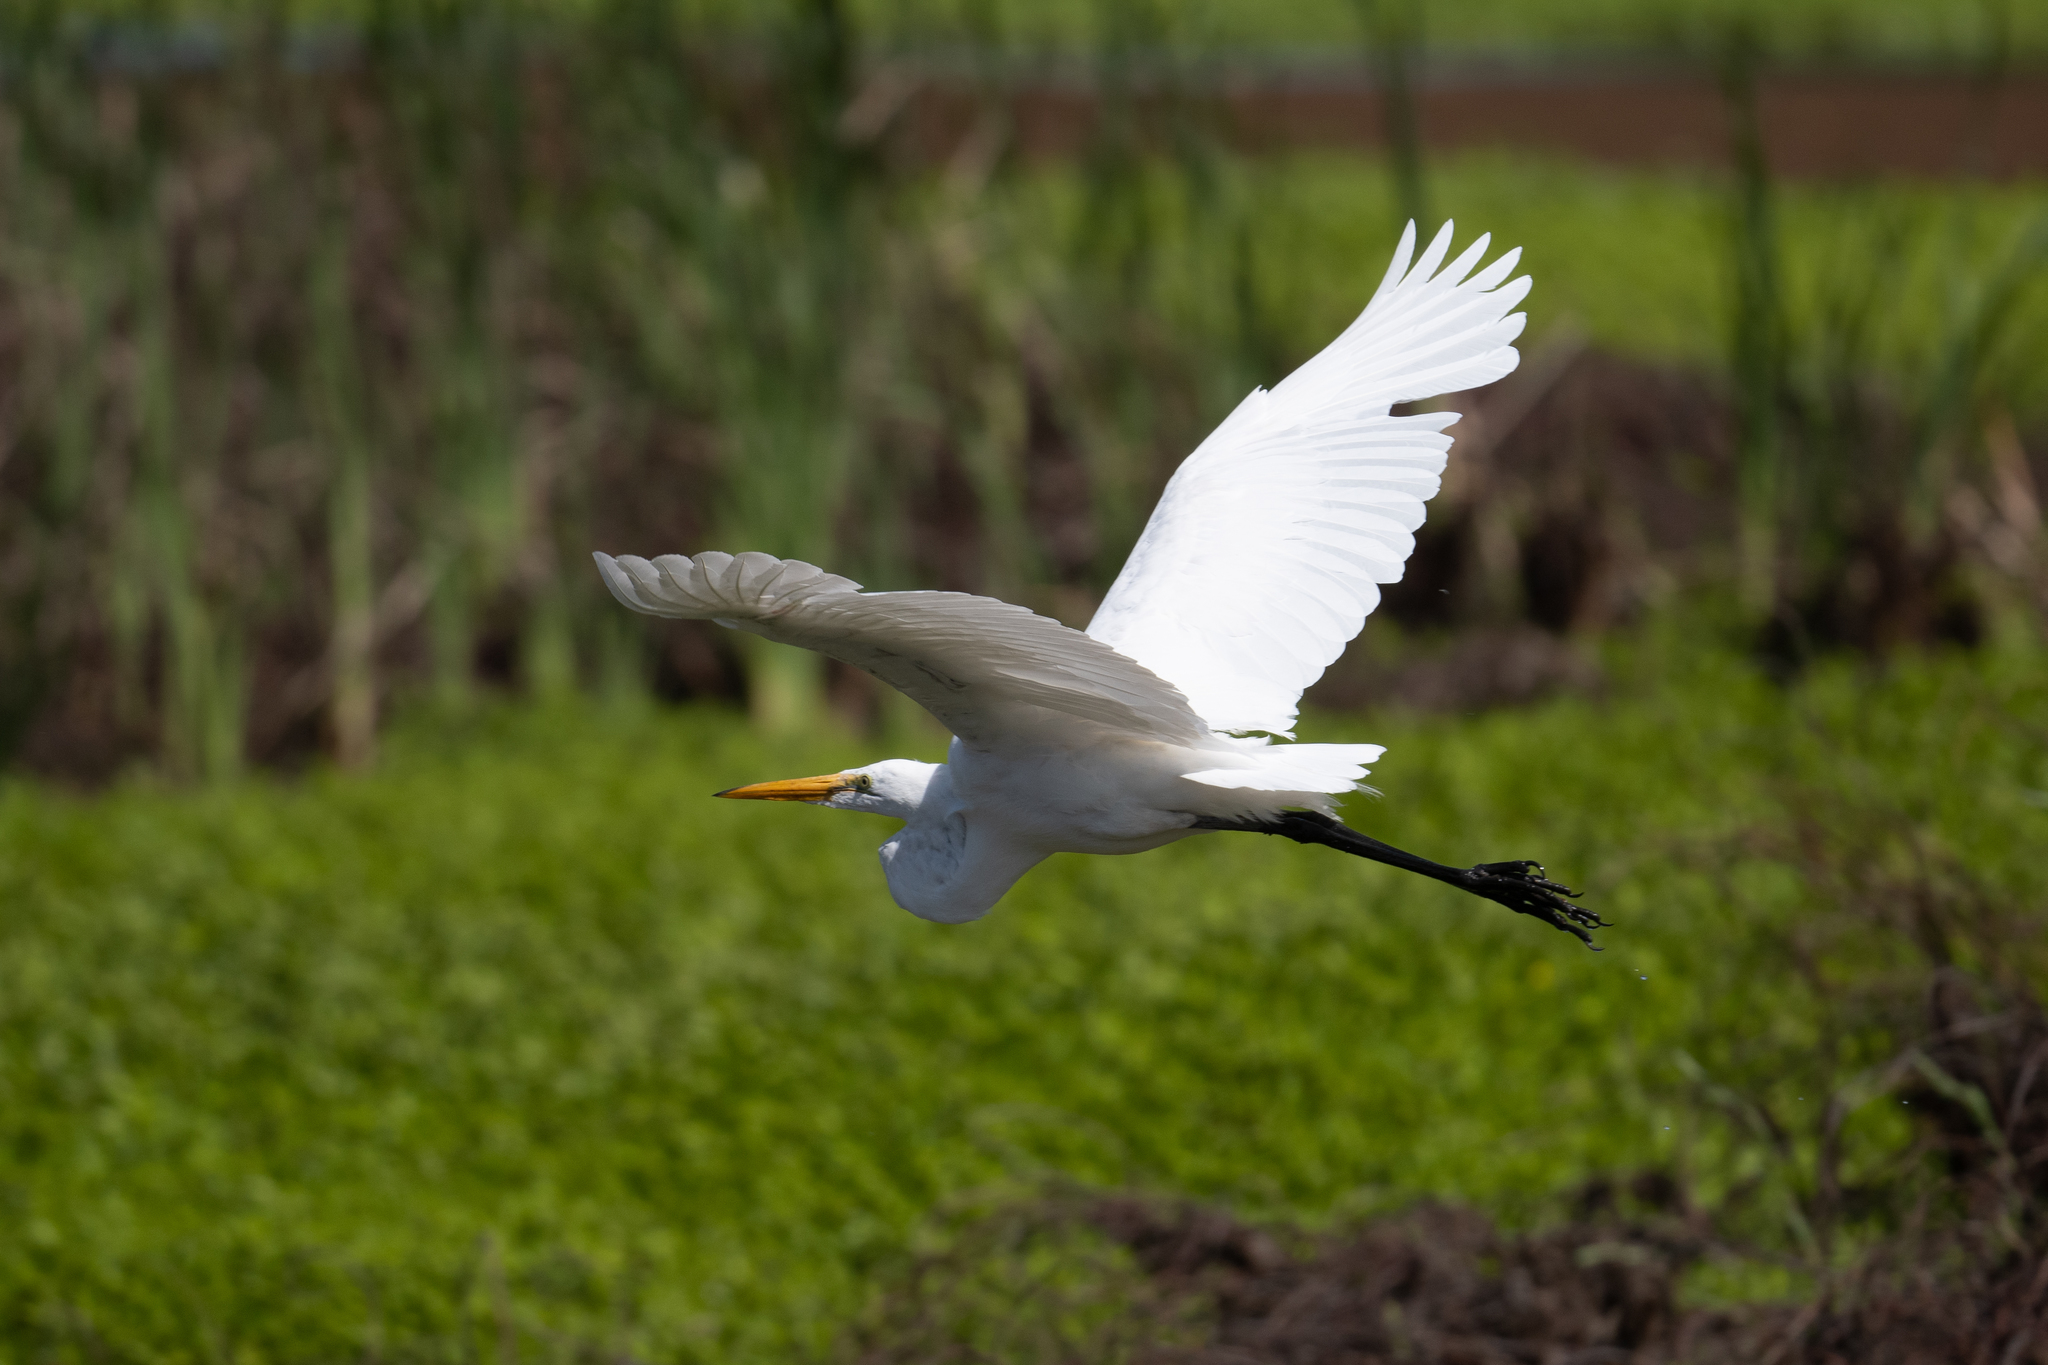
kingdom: Animalia
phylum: Chordata
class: Aves
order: Pelecaniformes
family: Ardeidae
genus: Ardea
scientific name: Ardea alba
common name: Great egret
